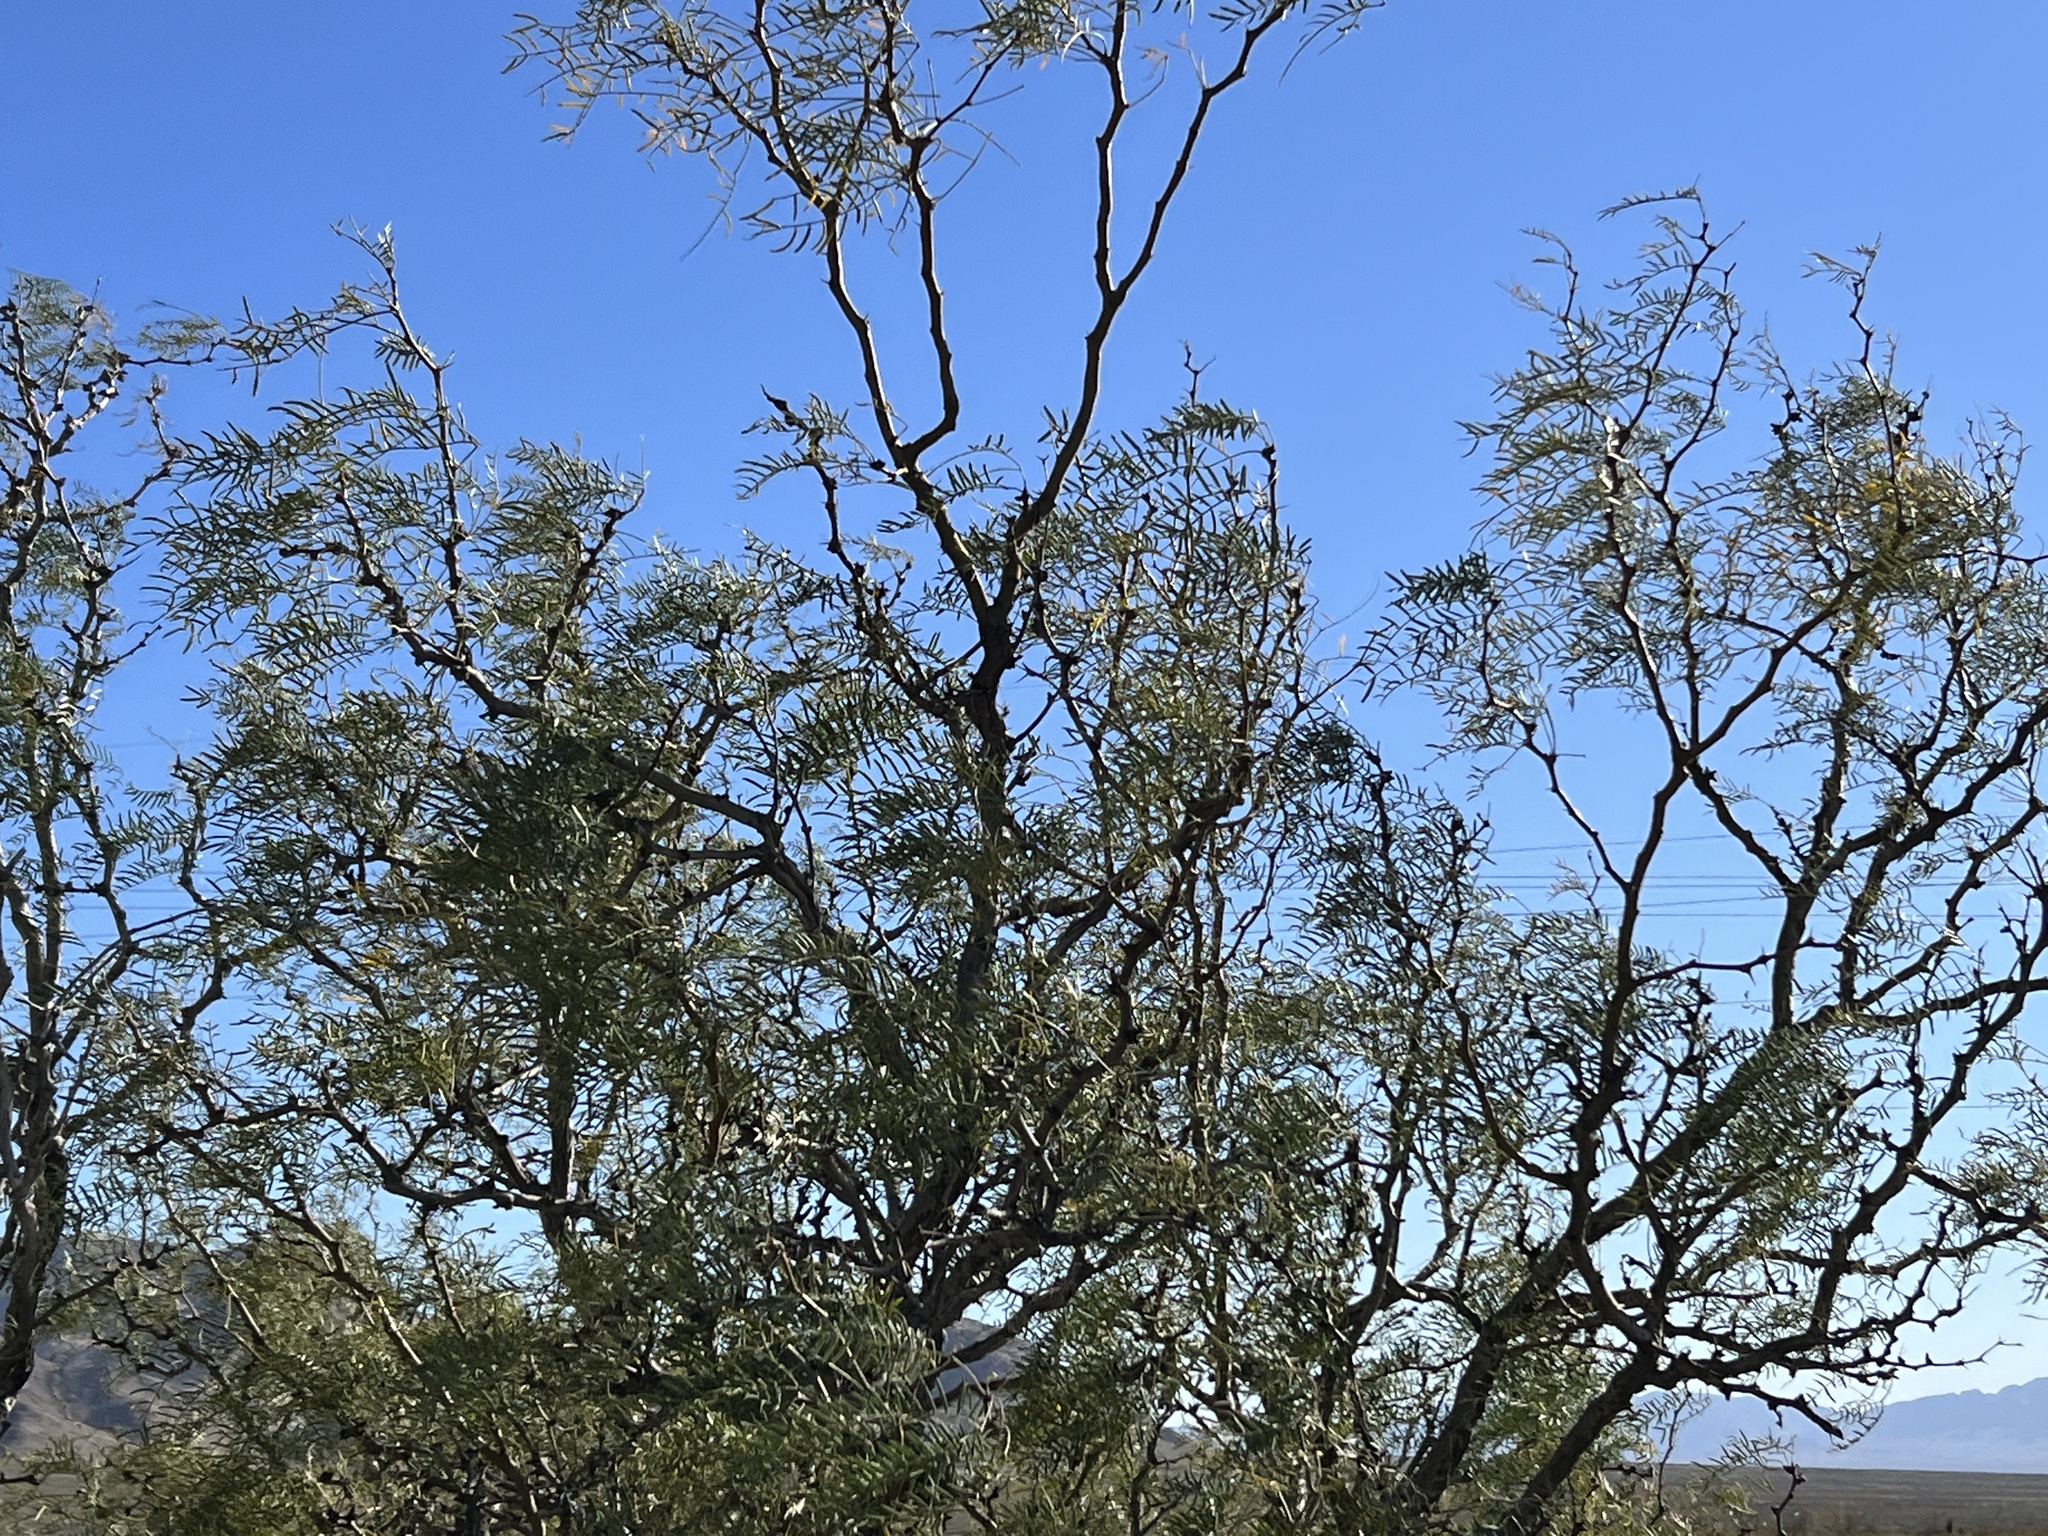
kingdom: Plantae
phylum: Tracheophyta
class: Magnoliopsida
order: Fabales
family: Fabaceae
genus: Prosopis
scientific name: Prosopis glandulosa
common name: Honey mesquite
